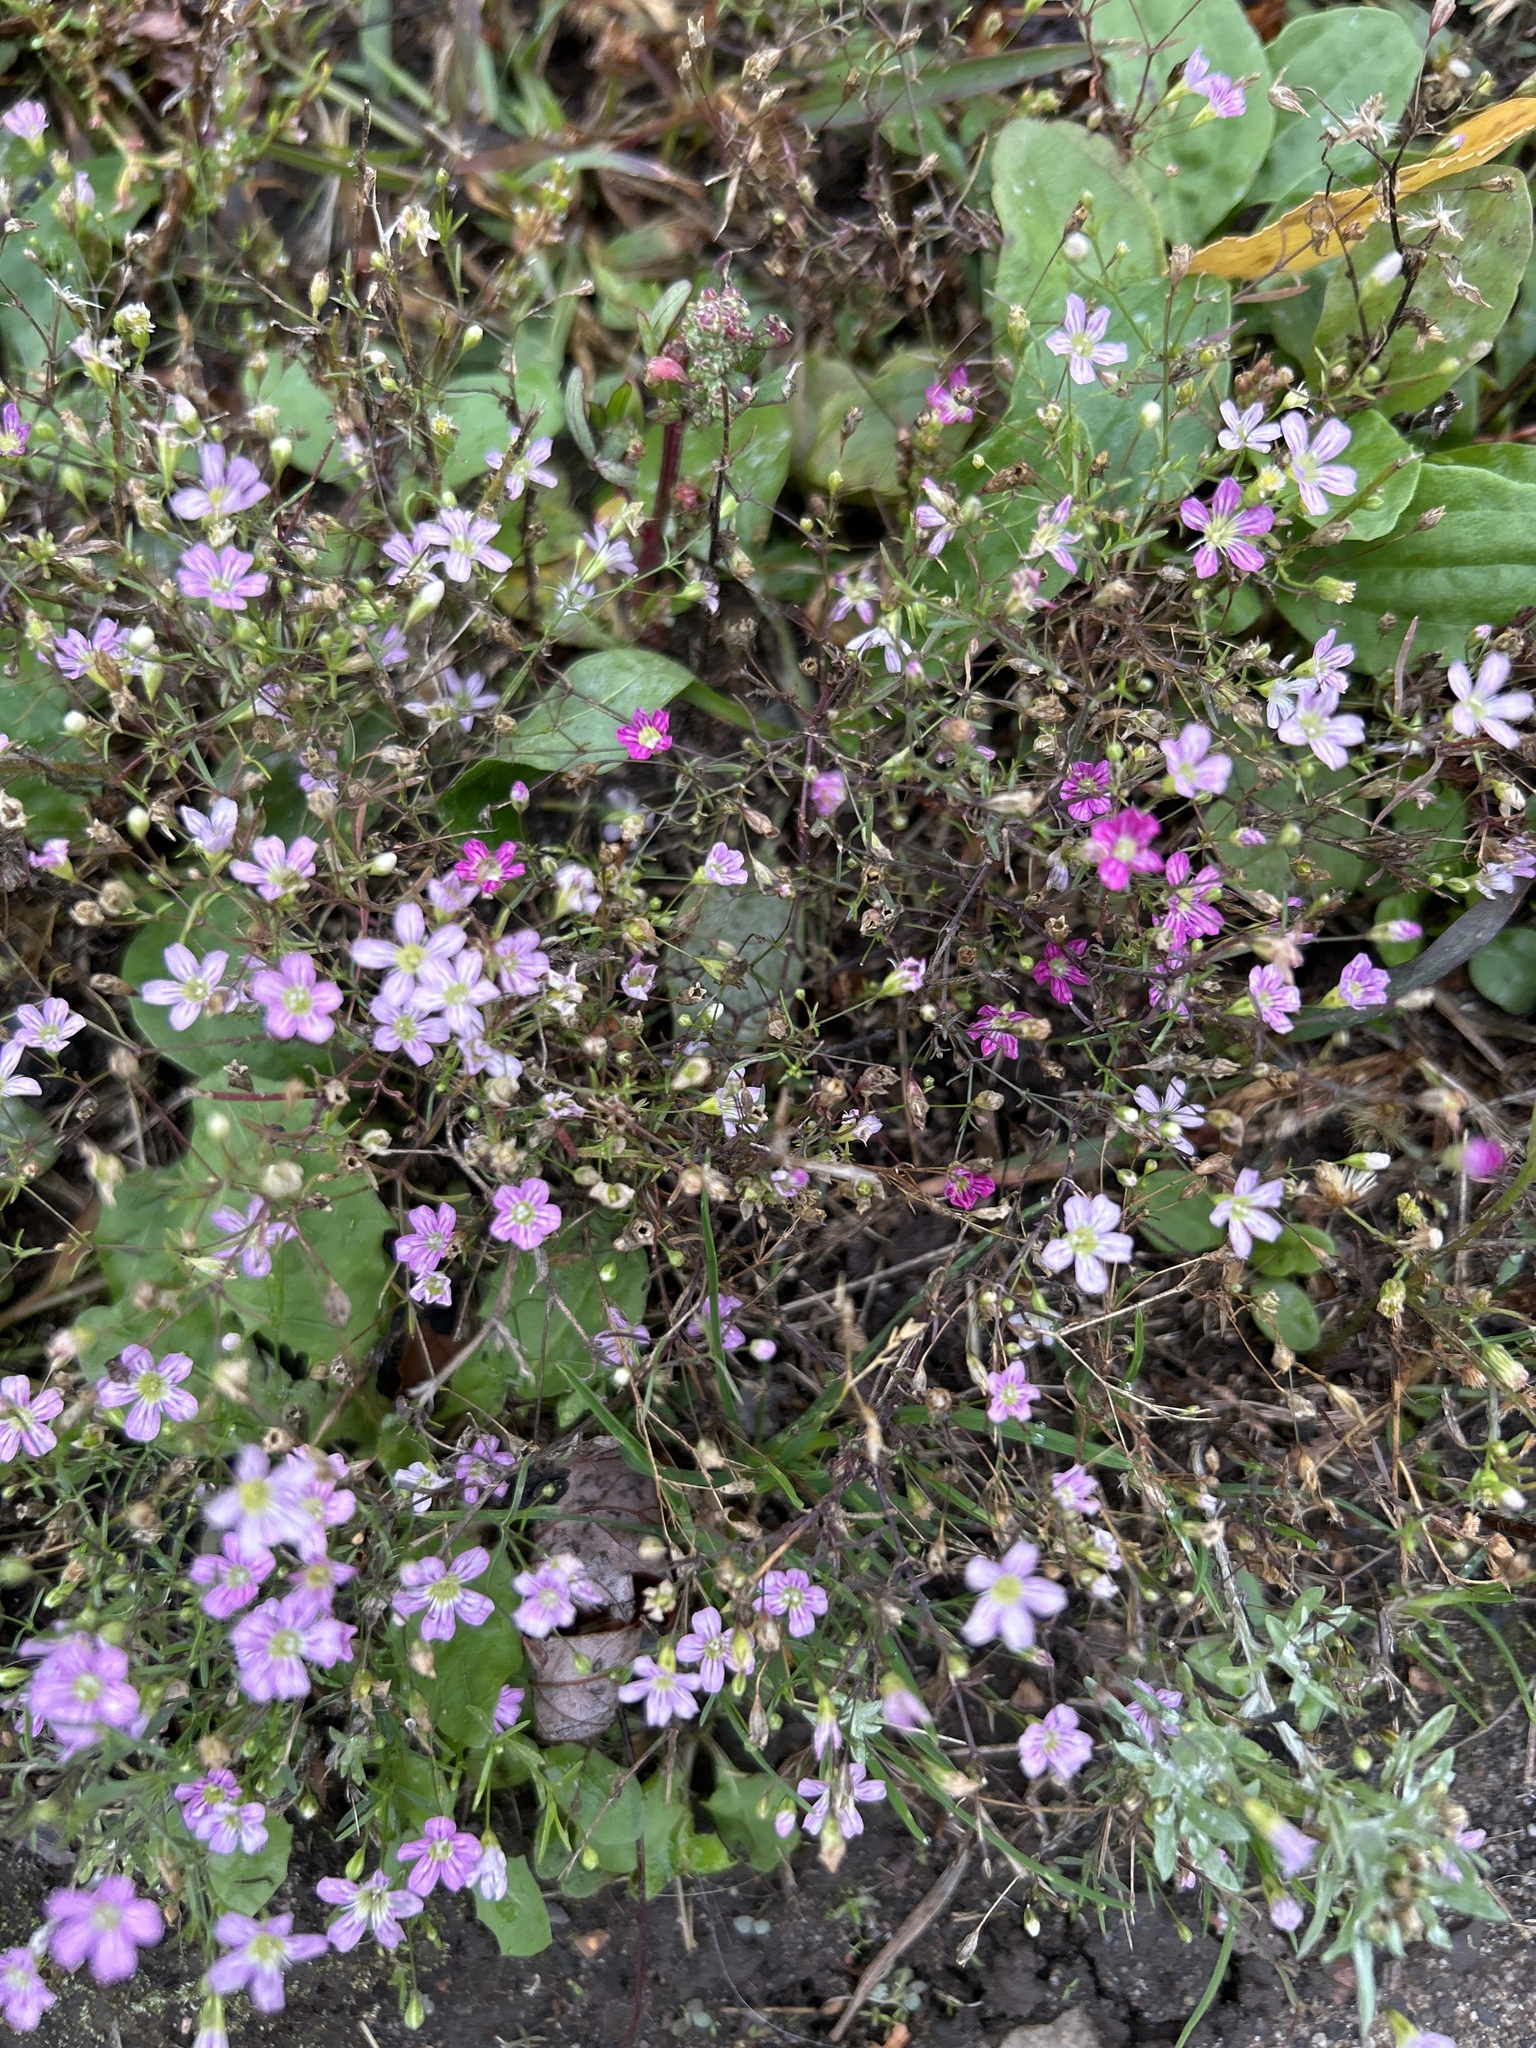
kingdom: Plantae
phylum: Tracheophyta
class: Magnoliopsida
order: Caryophyllales
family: Caryophyllaceae
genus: Psammophiliella
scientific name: Psammophiliella muralis
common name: Cushion baby's-breath
